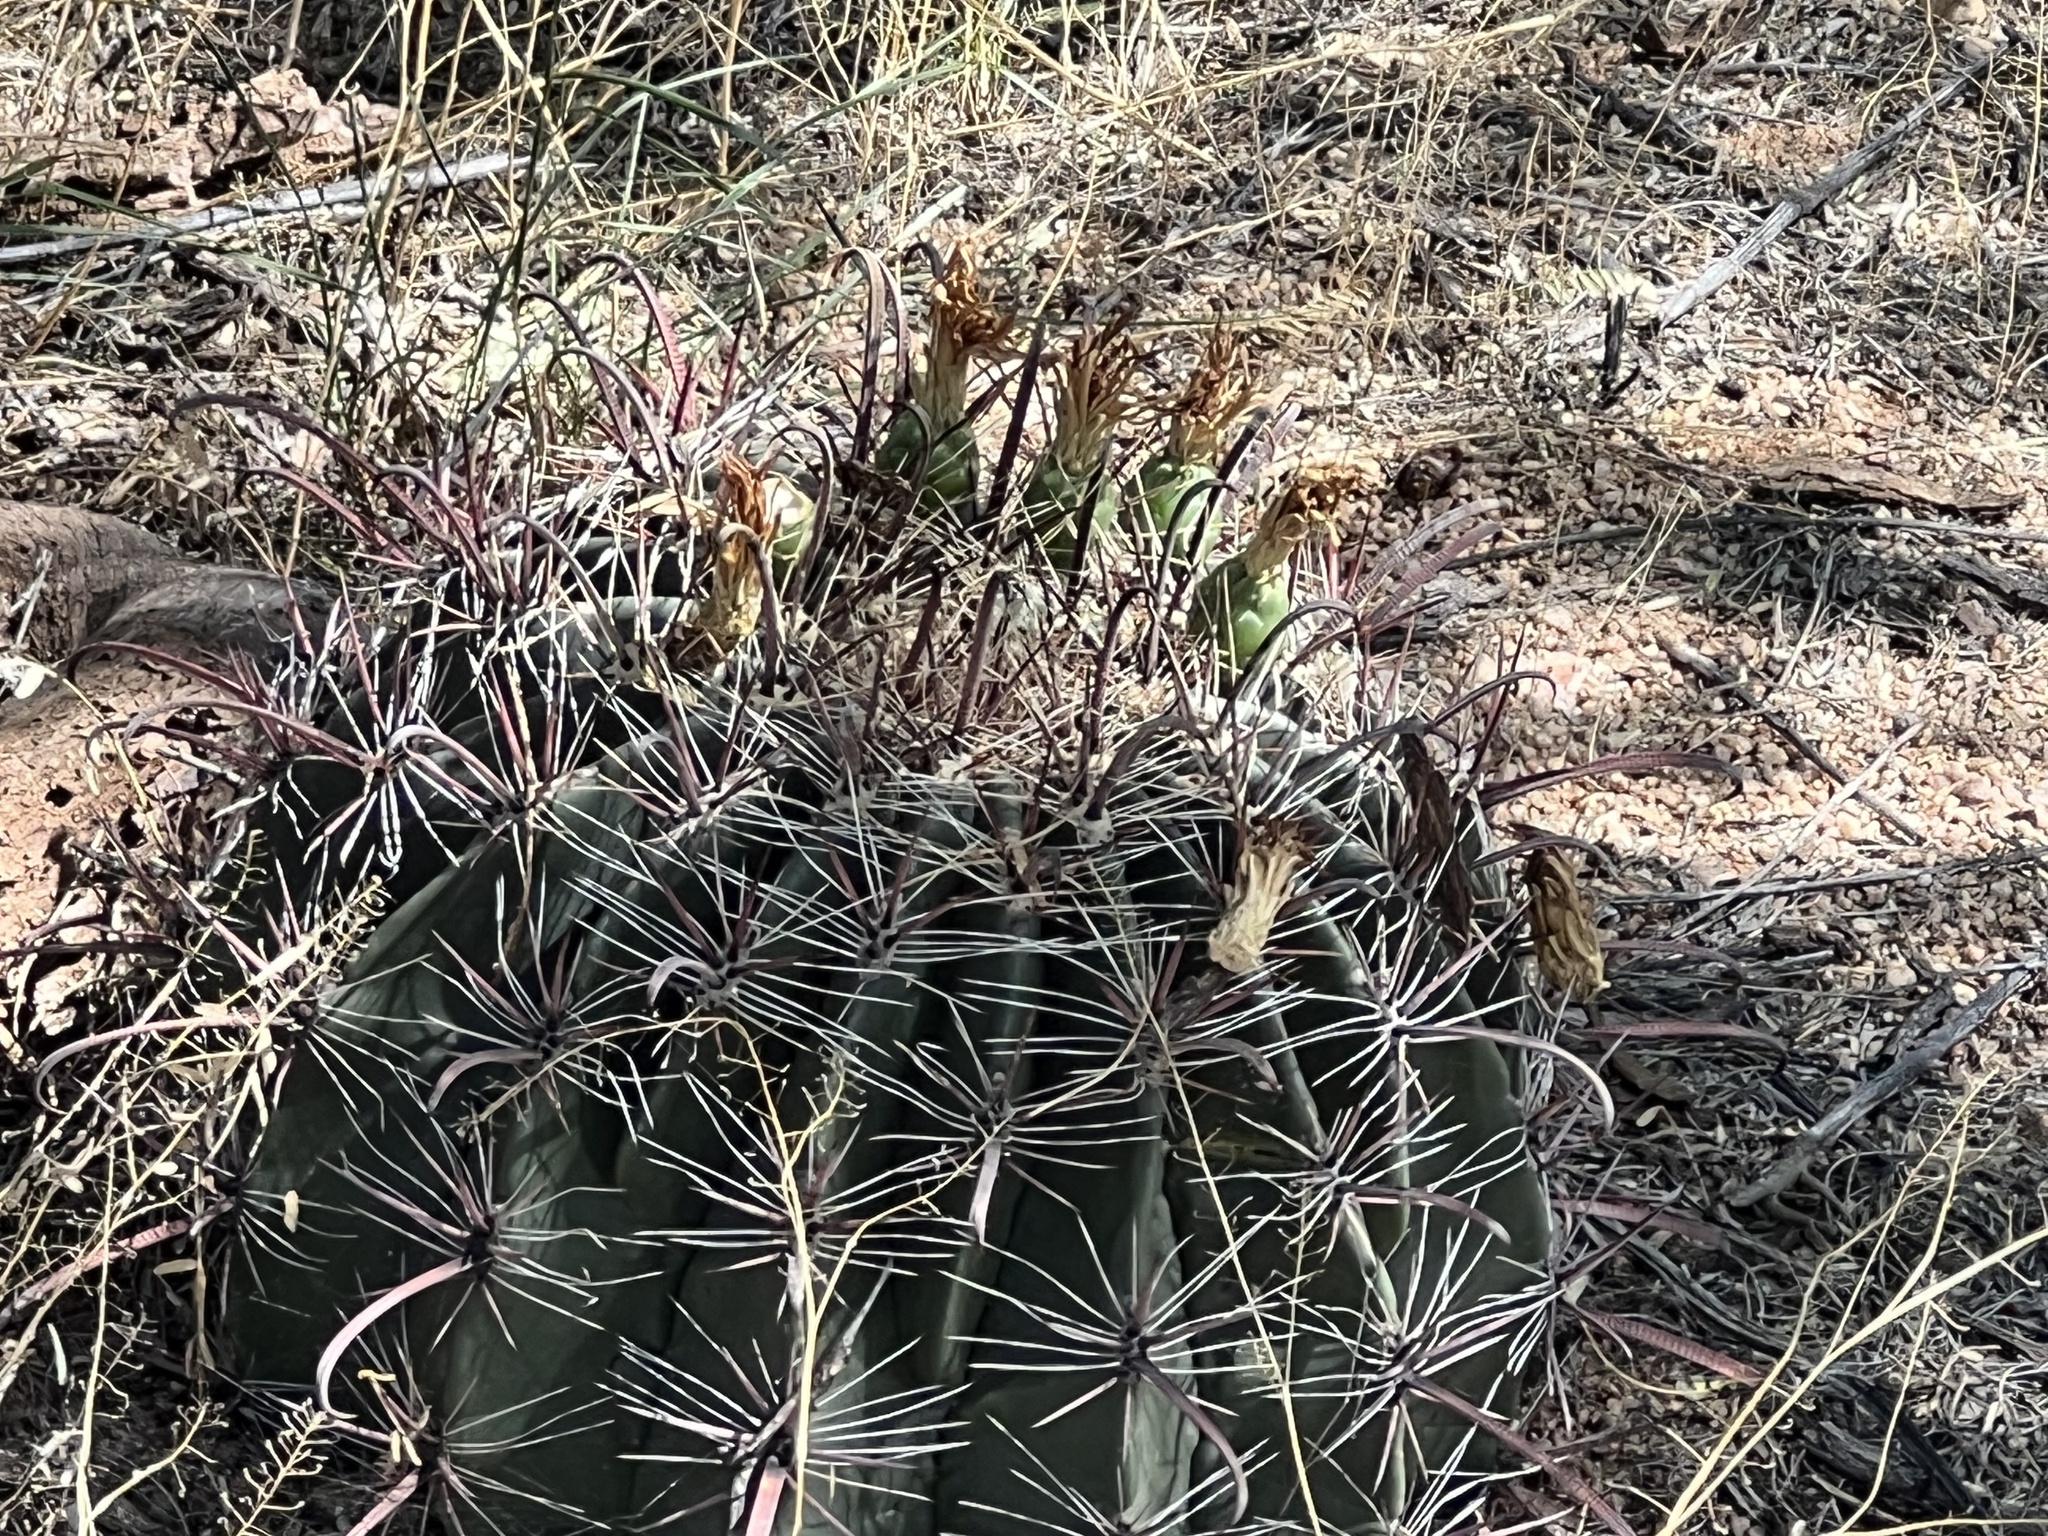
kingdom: Plantae
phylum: Tracheophyta
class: Magnoliopsida
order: Caryophyllales
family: Cactaceae
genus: Ferocactus
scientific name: Ferocactus wislizeni
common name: Candy barrel cactus
